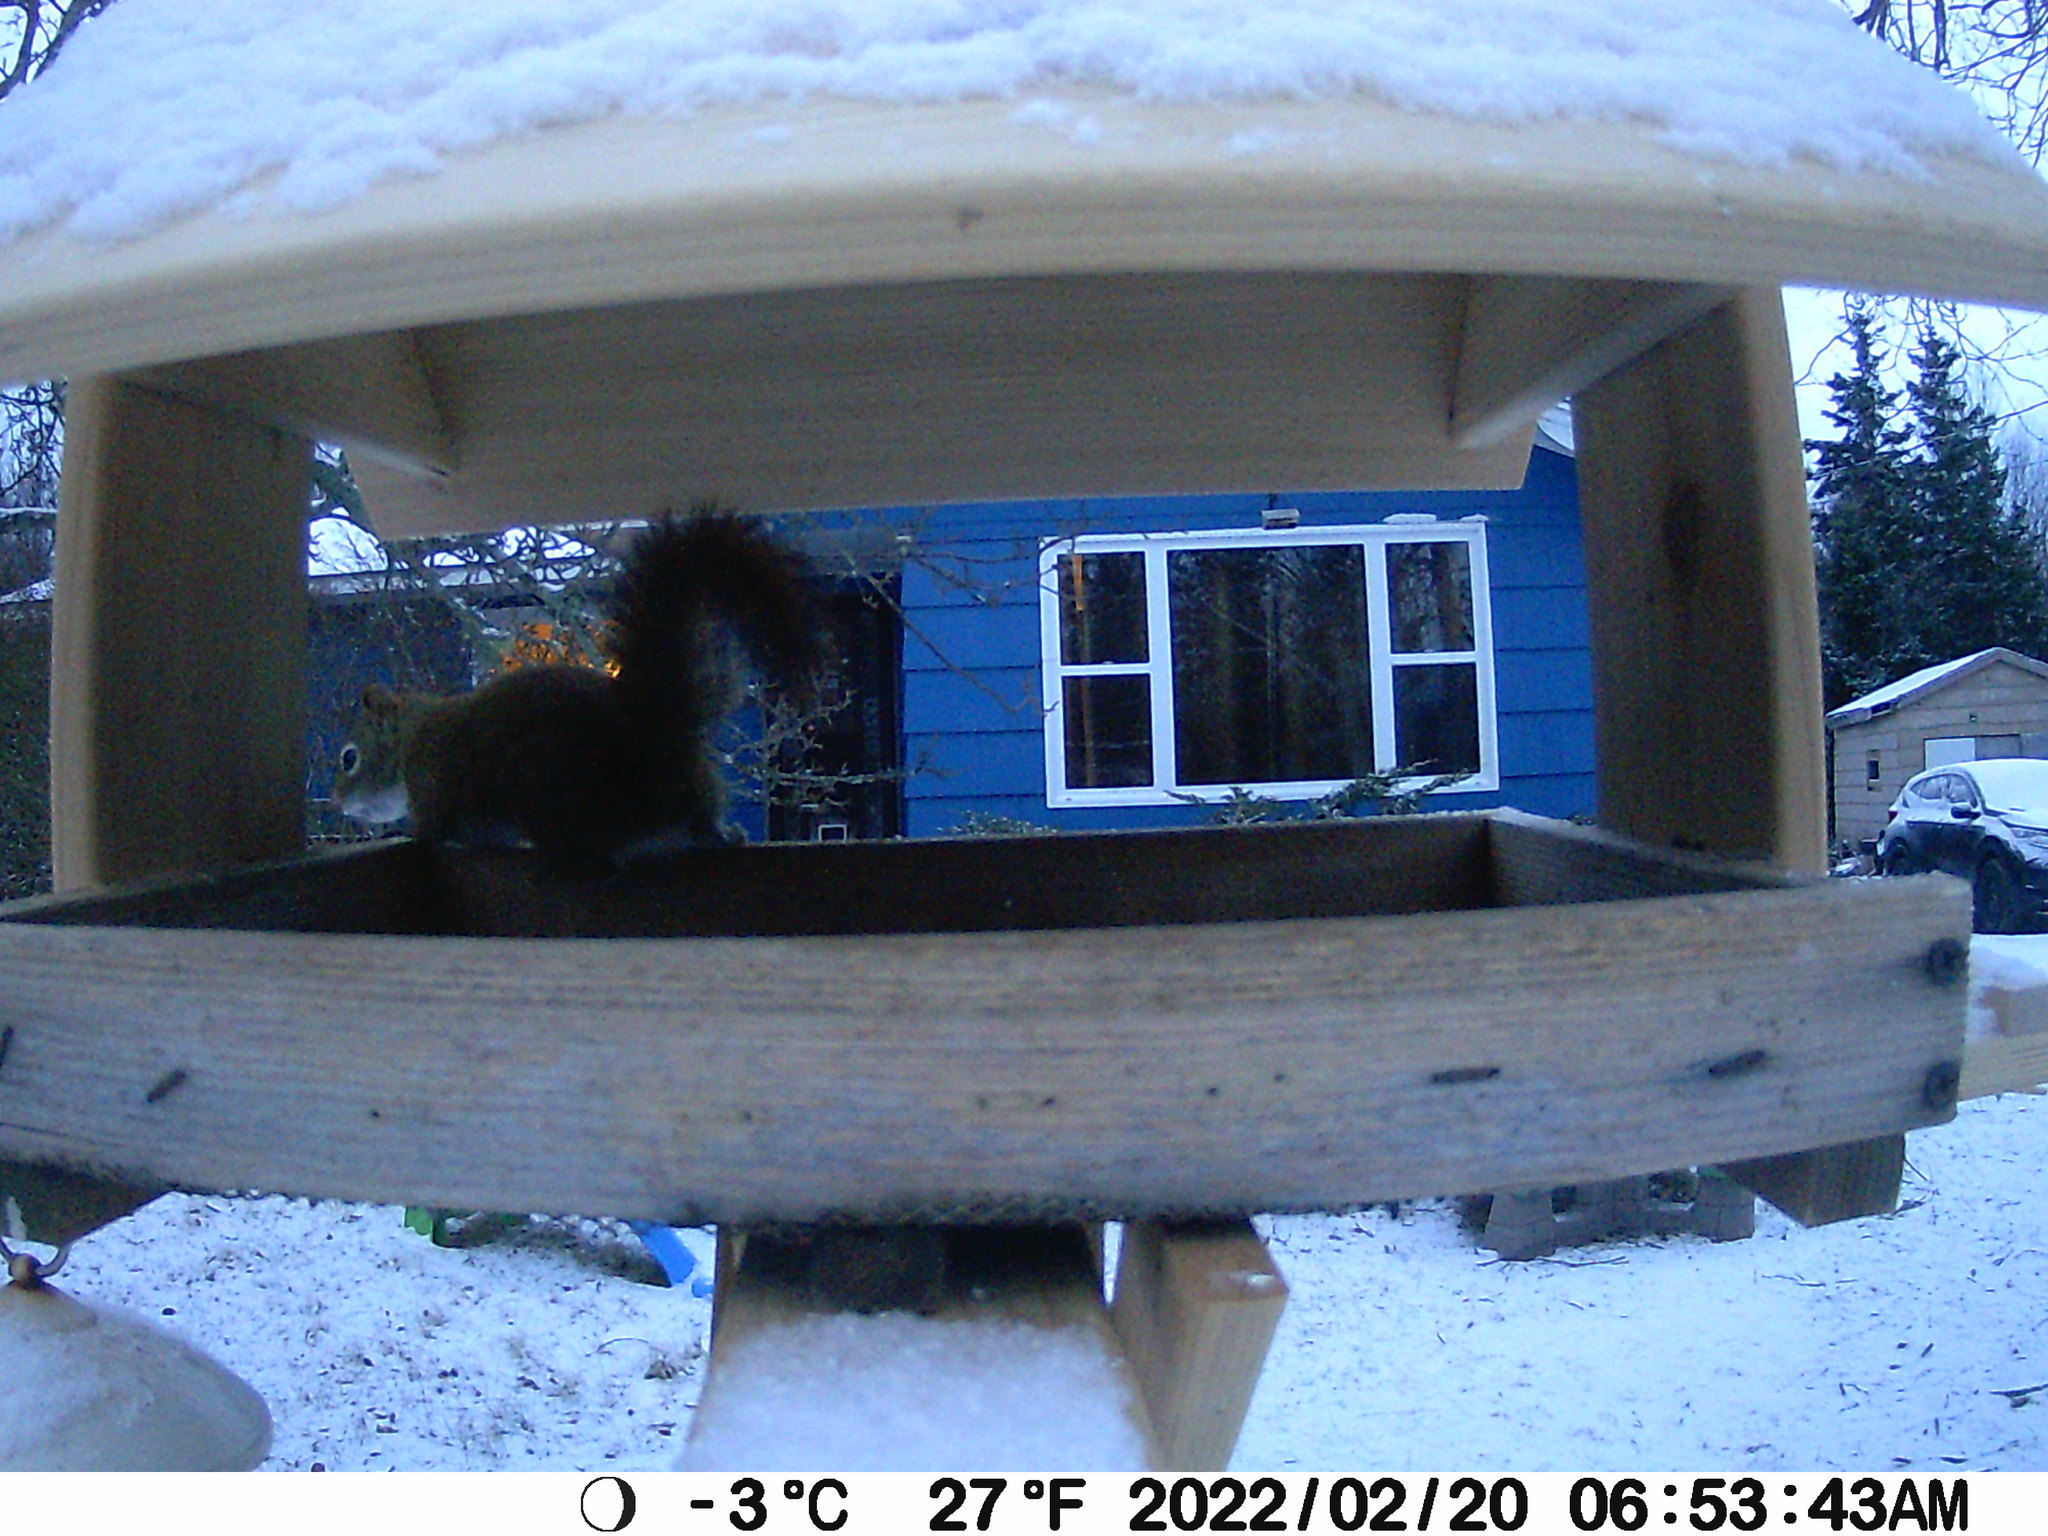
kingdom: Animalia
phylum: Chordata
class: Mammalia
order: Rodentia
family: Sciuridae
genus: Tamiasciurus
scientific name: Tamiasciurus hudsonicus
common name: Red squirrel
